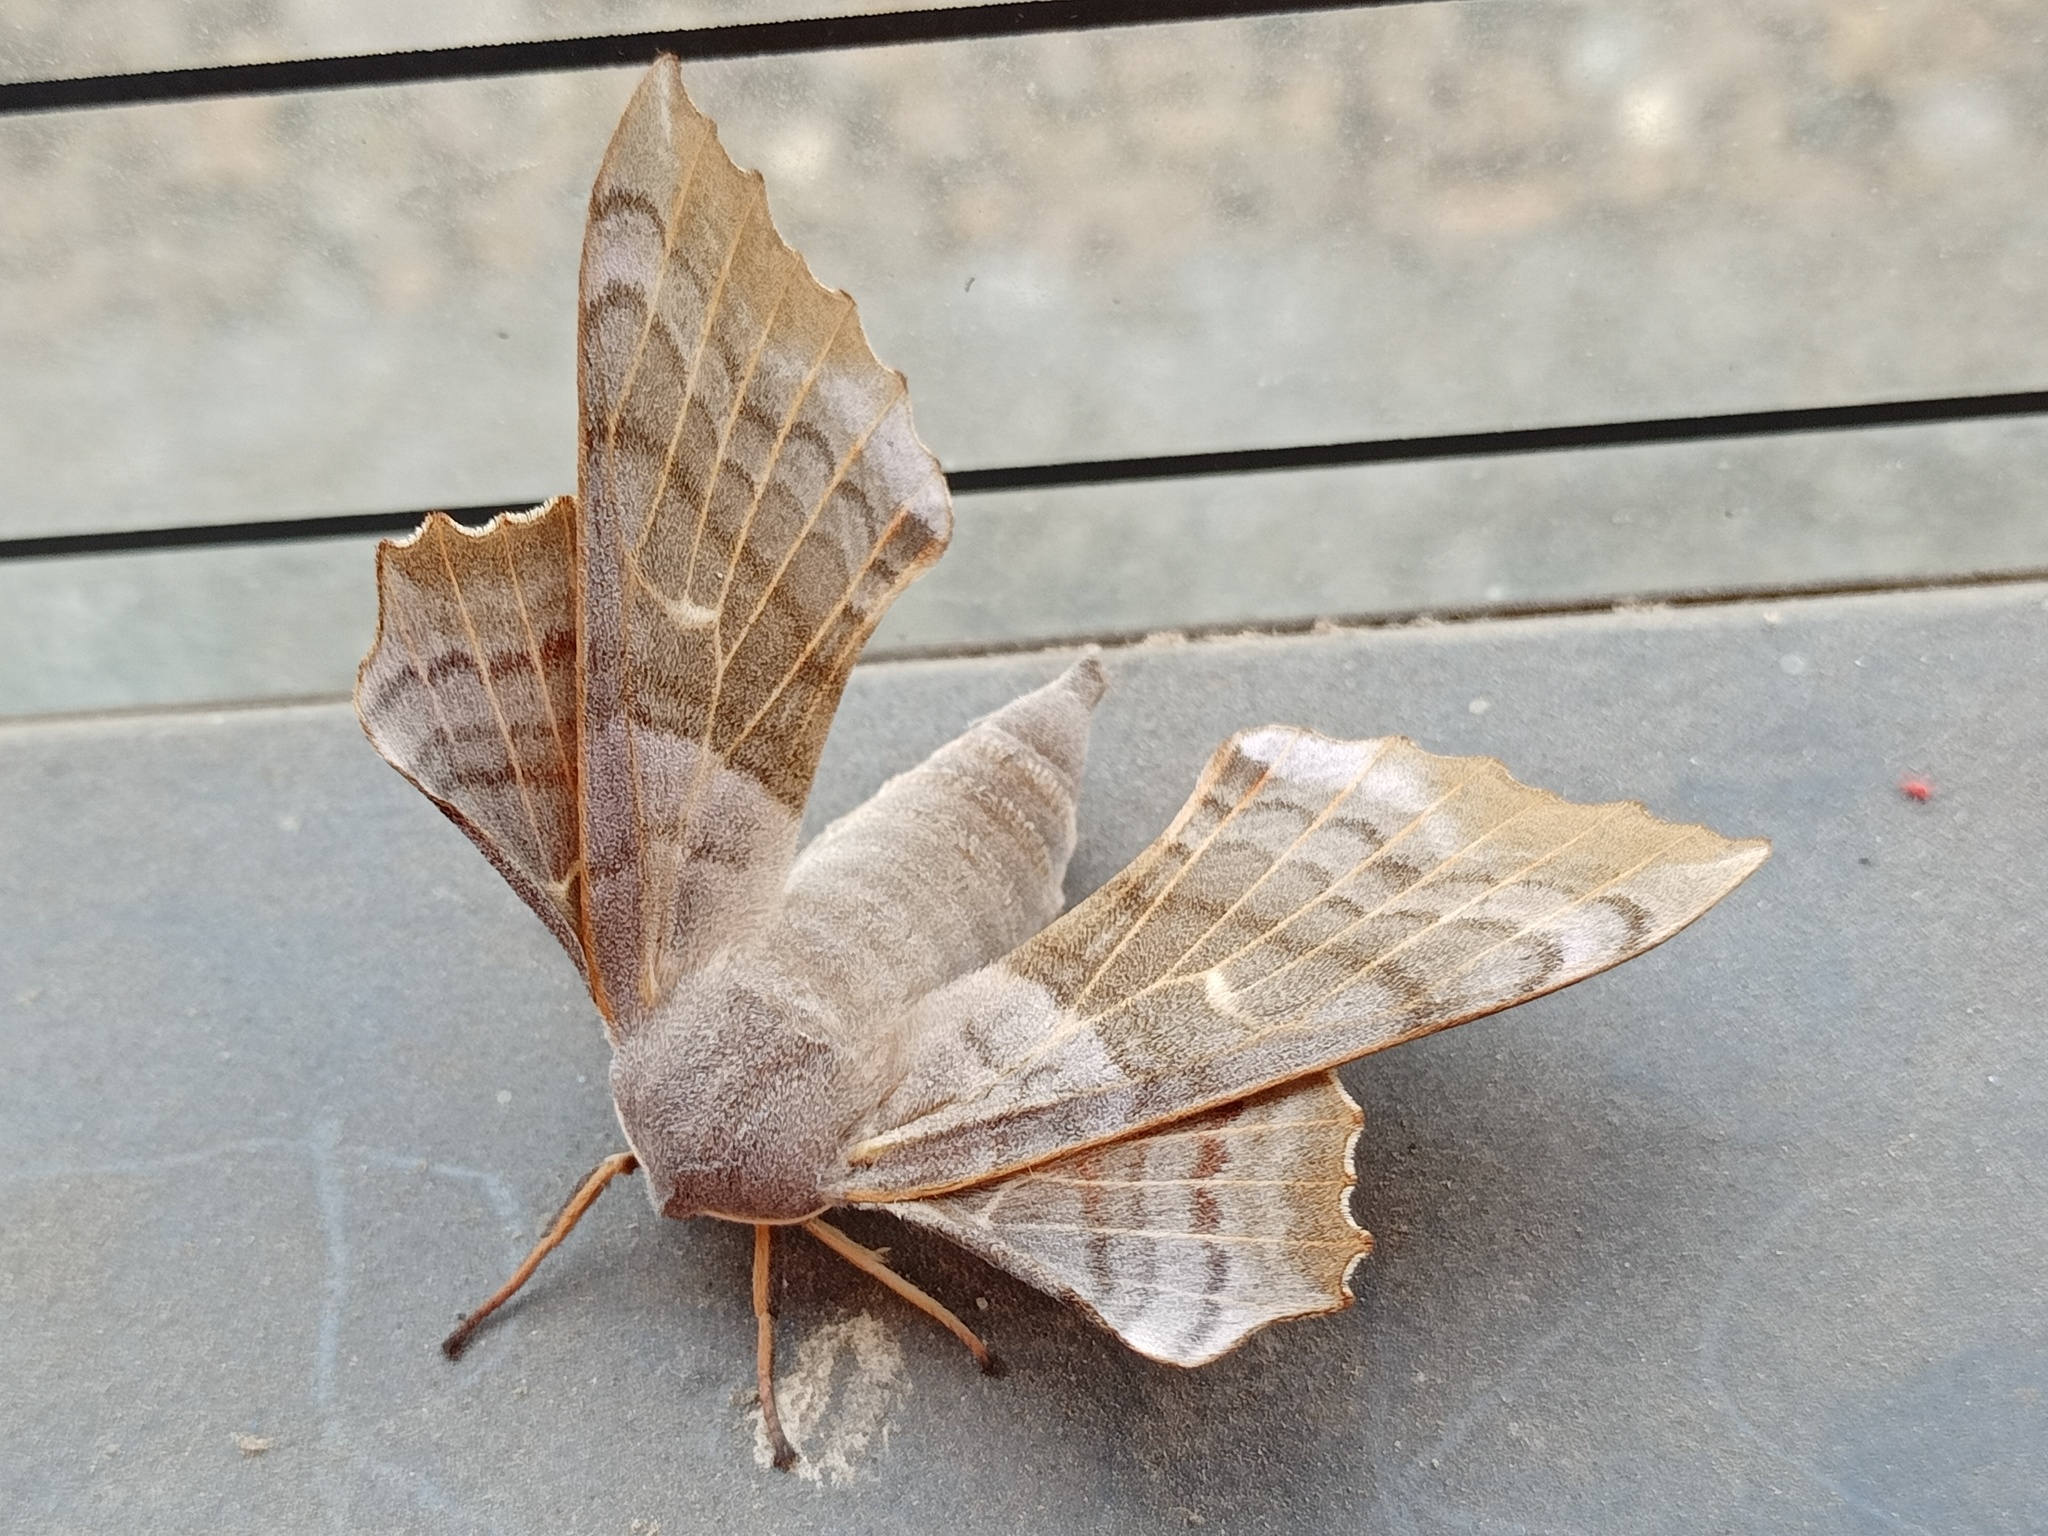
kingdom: Animalia
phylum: Arthropoda
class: Insecta
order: Lepidoptera
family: Sphingidae
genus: Laothoe
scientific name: Laothoe populi
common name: Poplar hawk-moth
